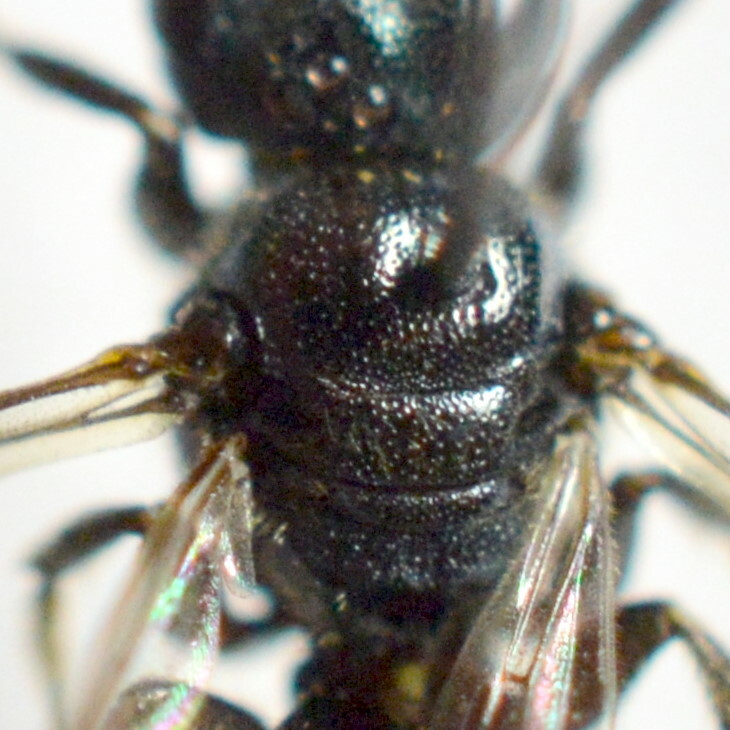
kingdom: Animalia
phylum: Arthropoda
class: Insecta
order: Hymenoptera
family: Apidae
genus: Ceratina
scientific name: Ceratina nigrolabiata
